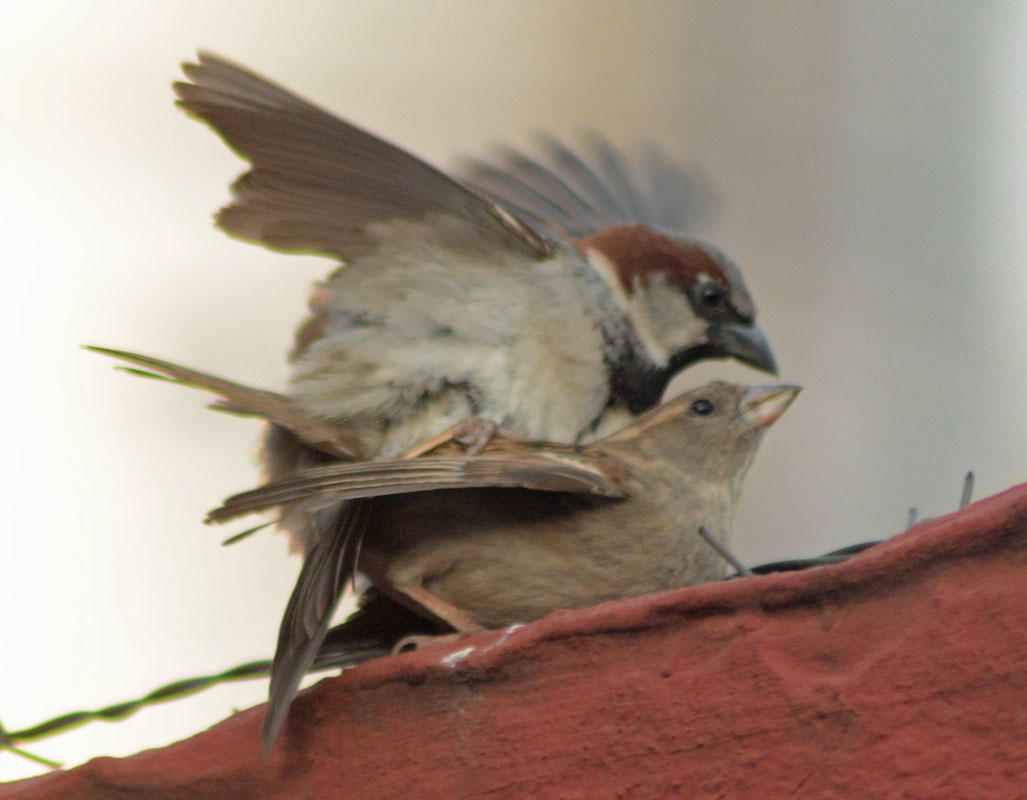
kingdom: Animalia
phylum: Chordata
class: Aves
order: Passeriformes
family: Passeridae
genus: Passer
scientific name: Passer domesticus
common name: House sparrow
